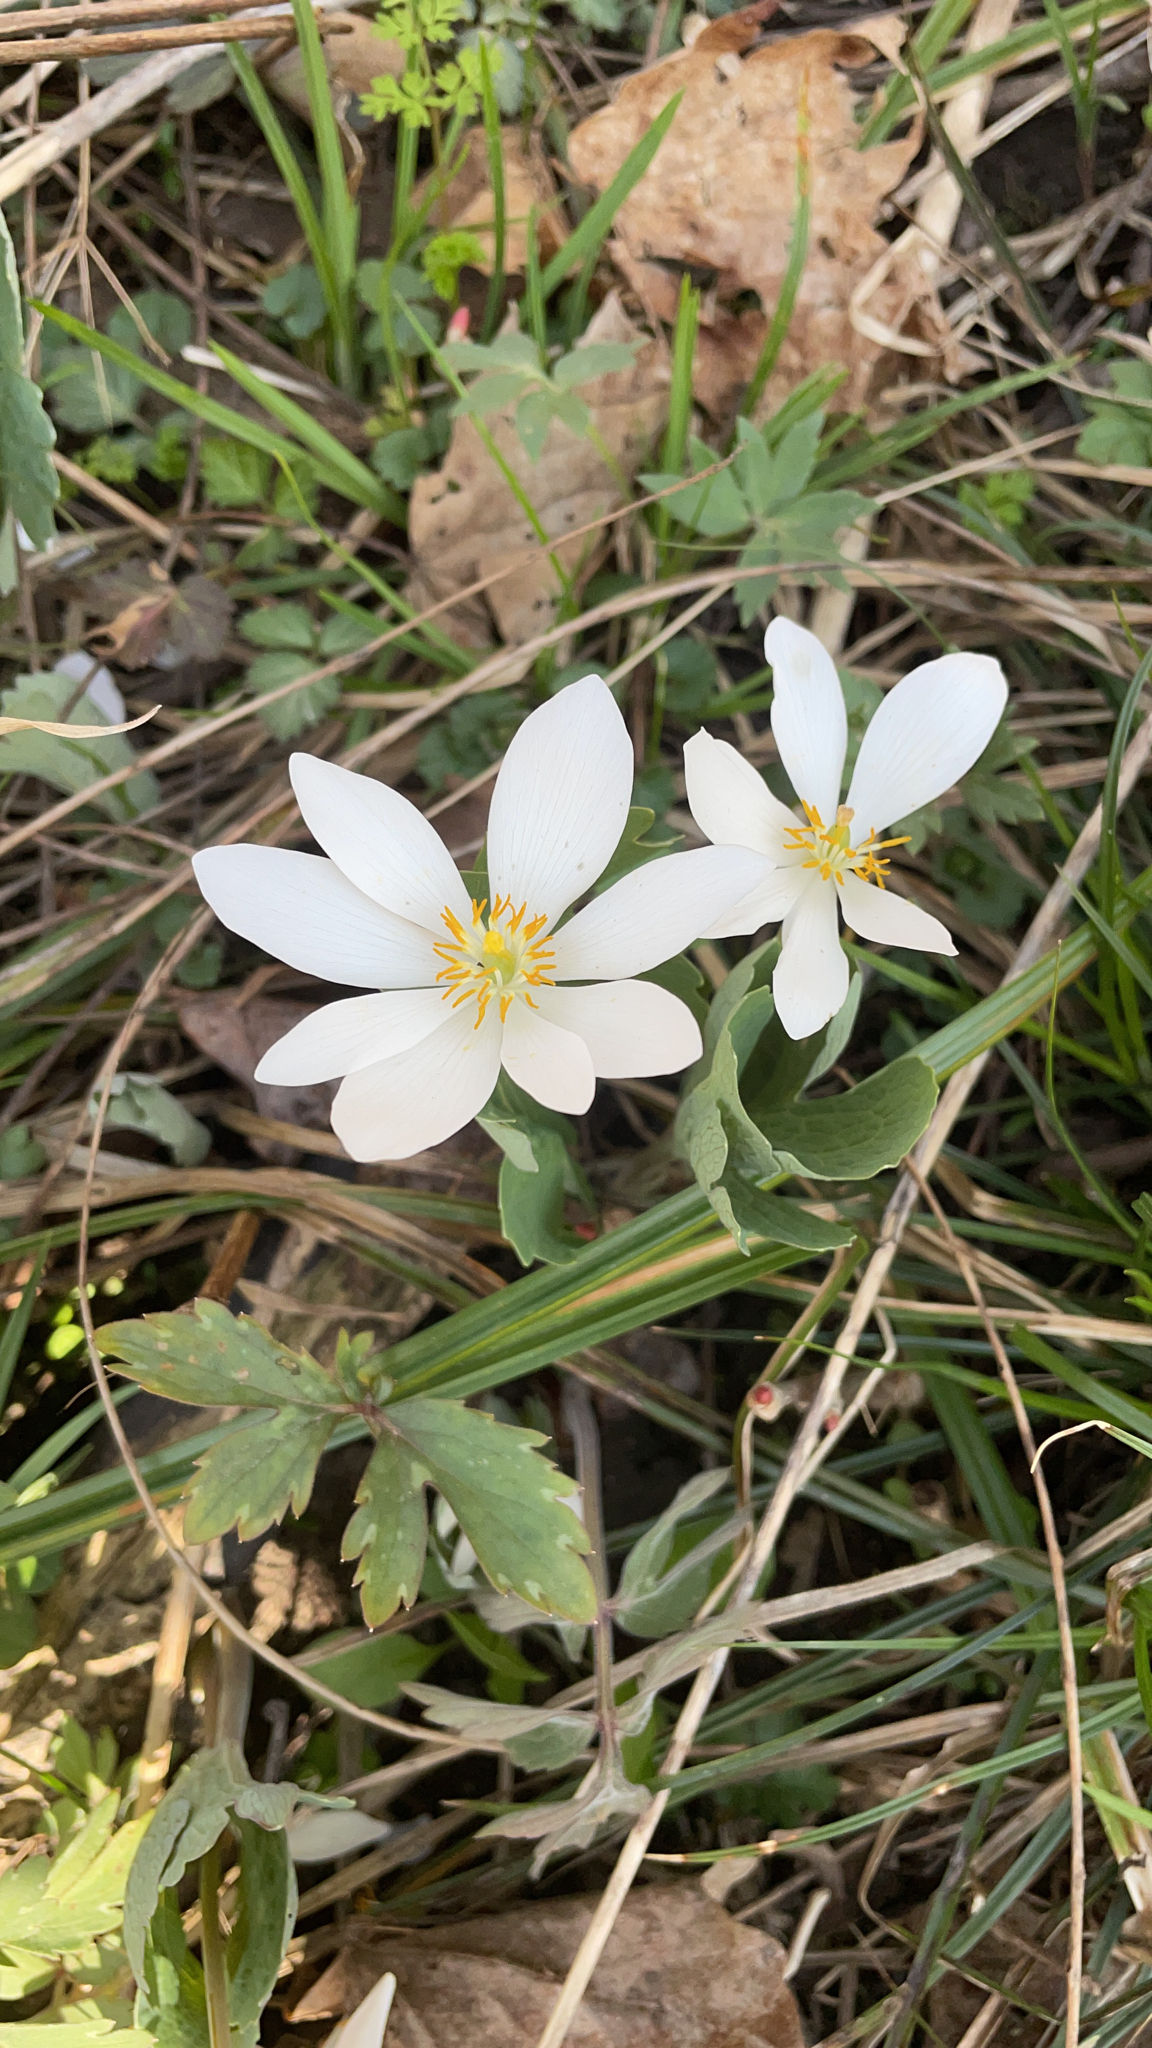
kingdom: Plantae
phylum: Tracheophyta
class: Magnoliopsida
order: Ranunculales
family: Papaveraceae
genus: Sanguinaria
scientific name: Sanguinaria canadensis
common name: Bloodroot
